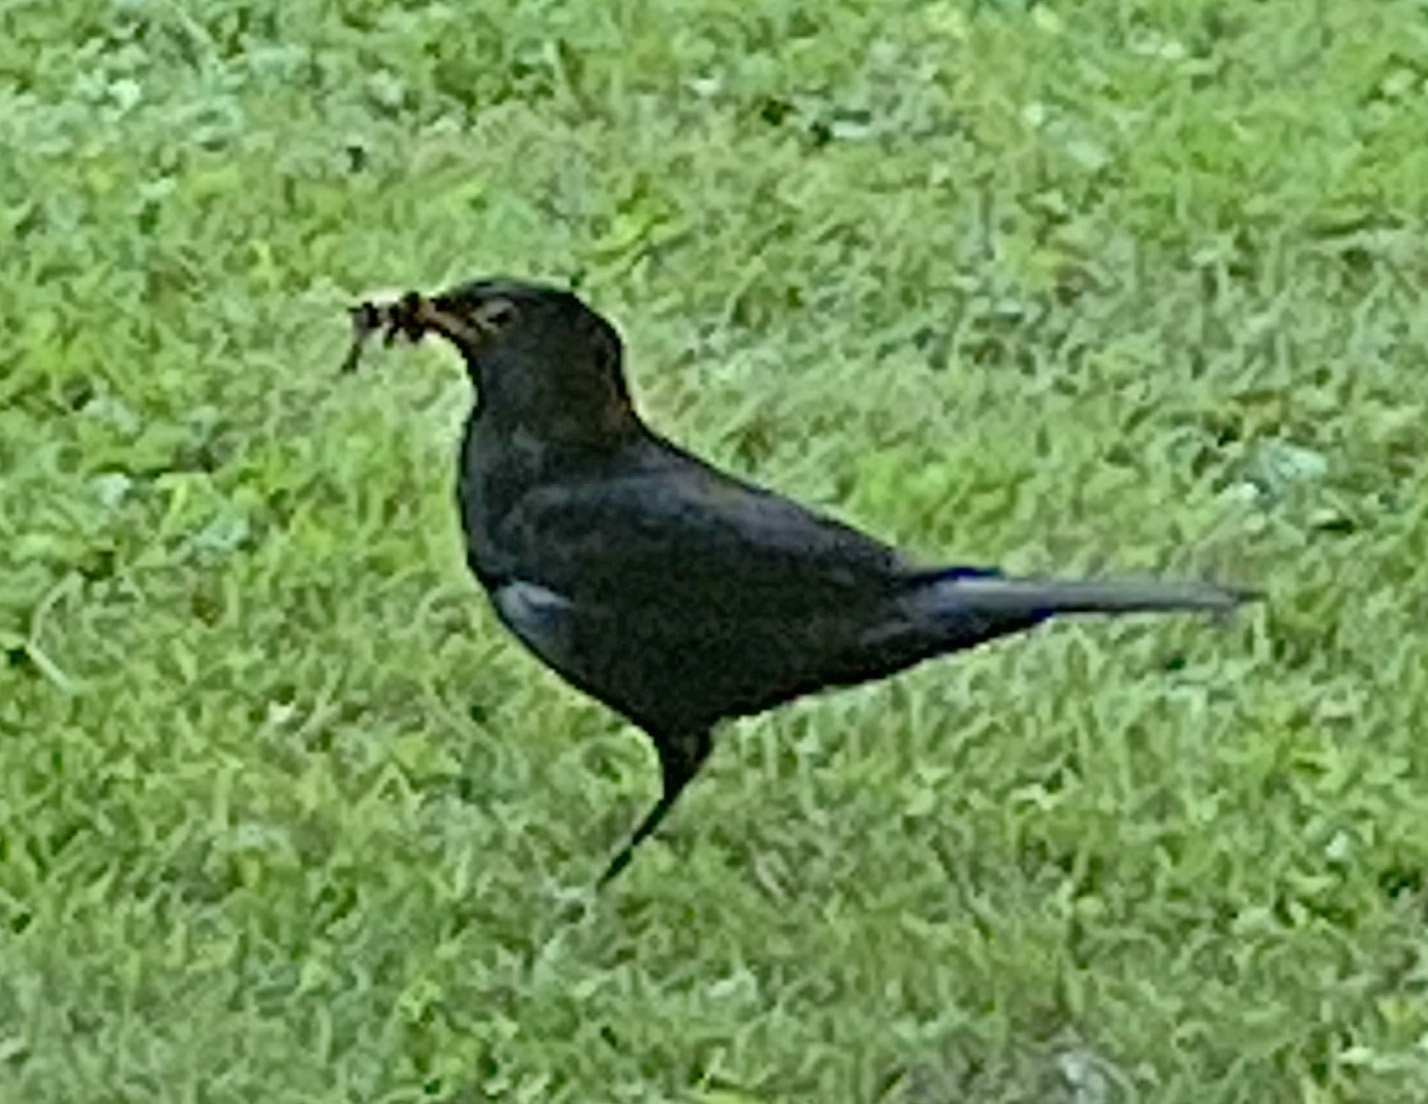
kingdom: Animalia
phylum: Chordata
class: Aves
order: Passeriformes
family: Turdidae
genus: Turdus
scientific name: Turdus merula
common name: Common blackbird
